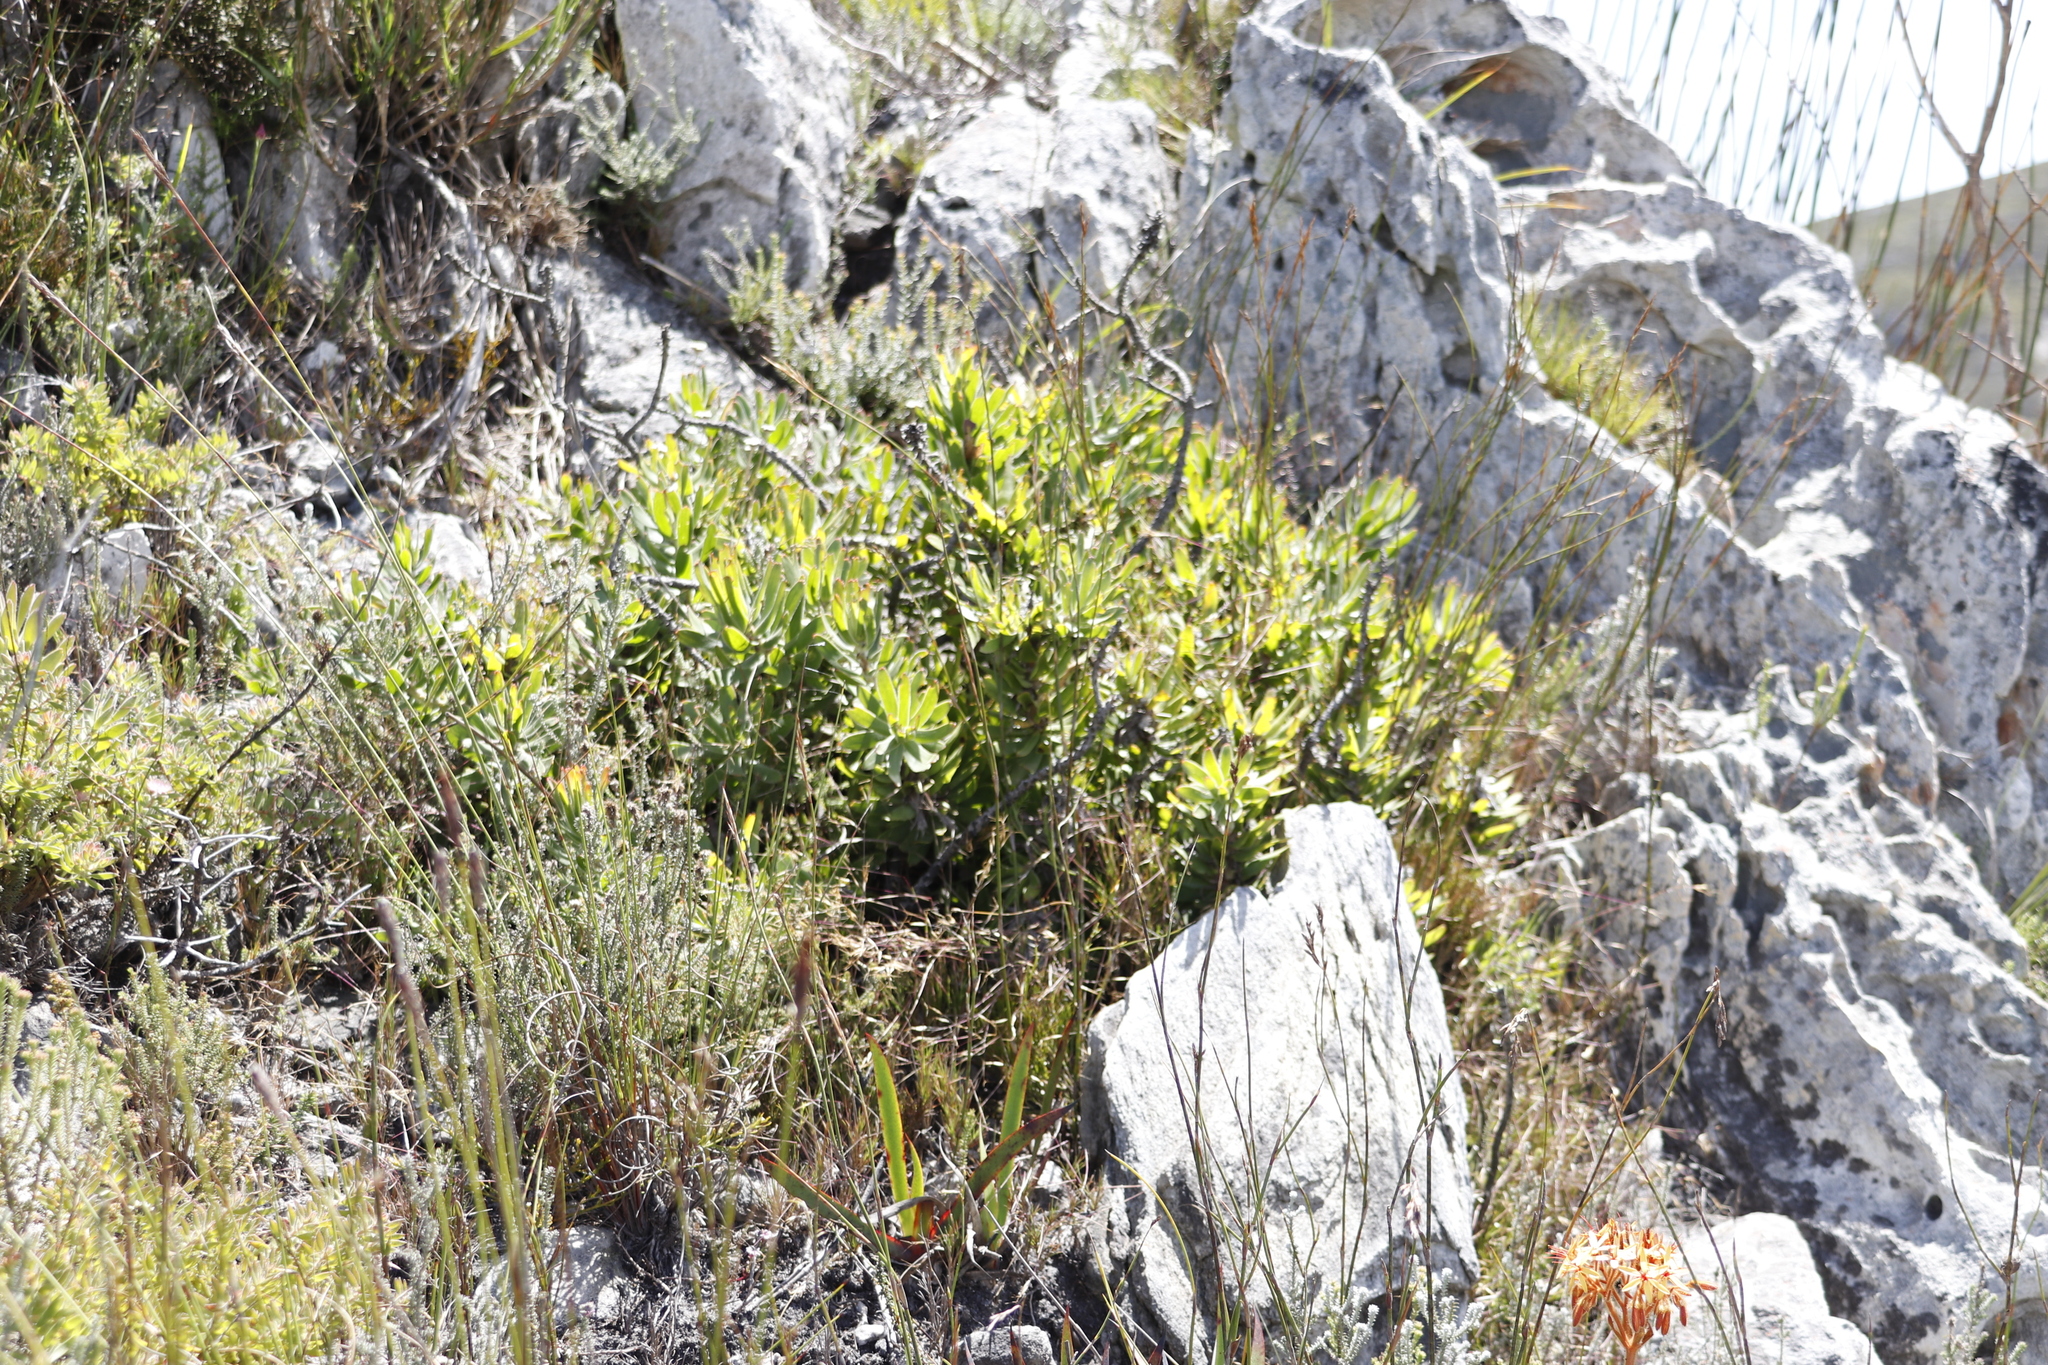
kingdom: Plantae
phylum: Tracheophyta
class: Magnoliopsida
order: Proteales
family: Proteaceae
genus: Mimetes
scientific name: Mimetes cucullatus
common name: Common pagoda
